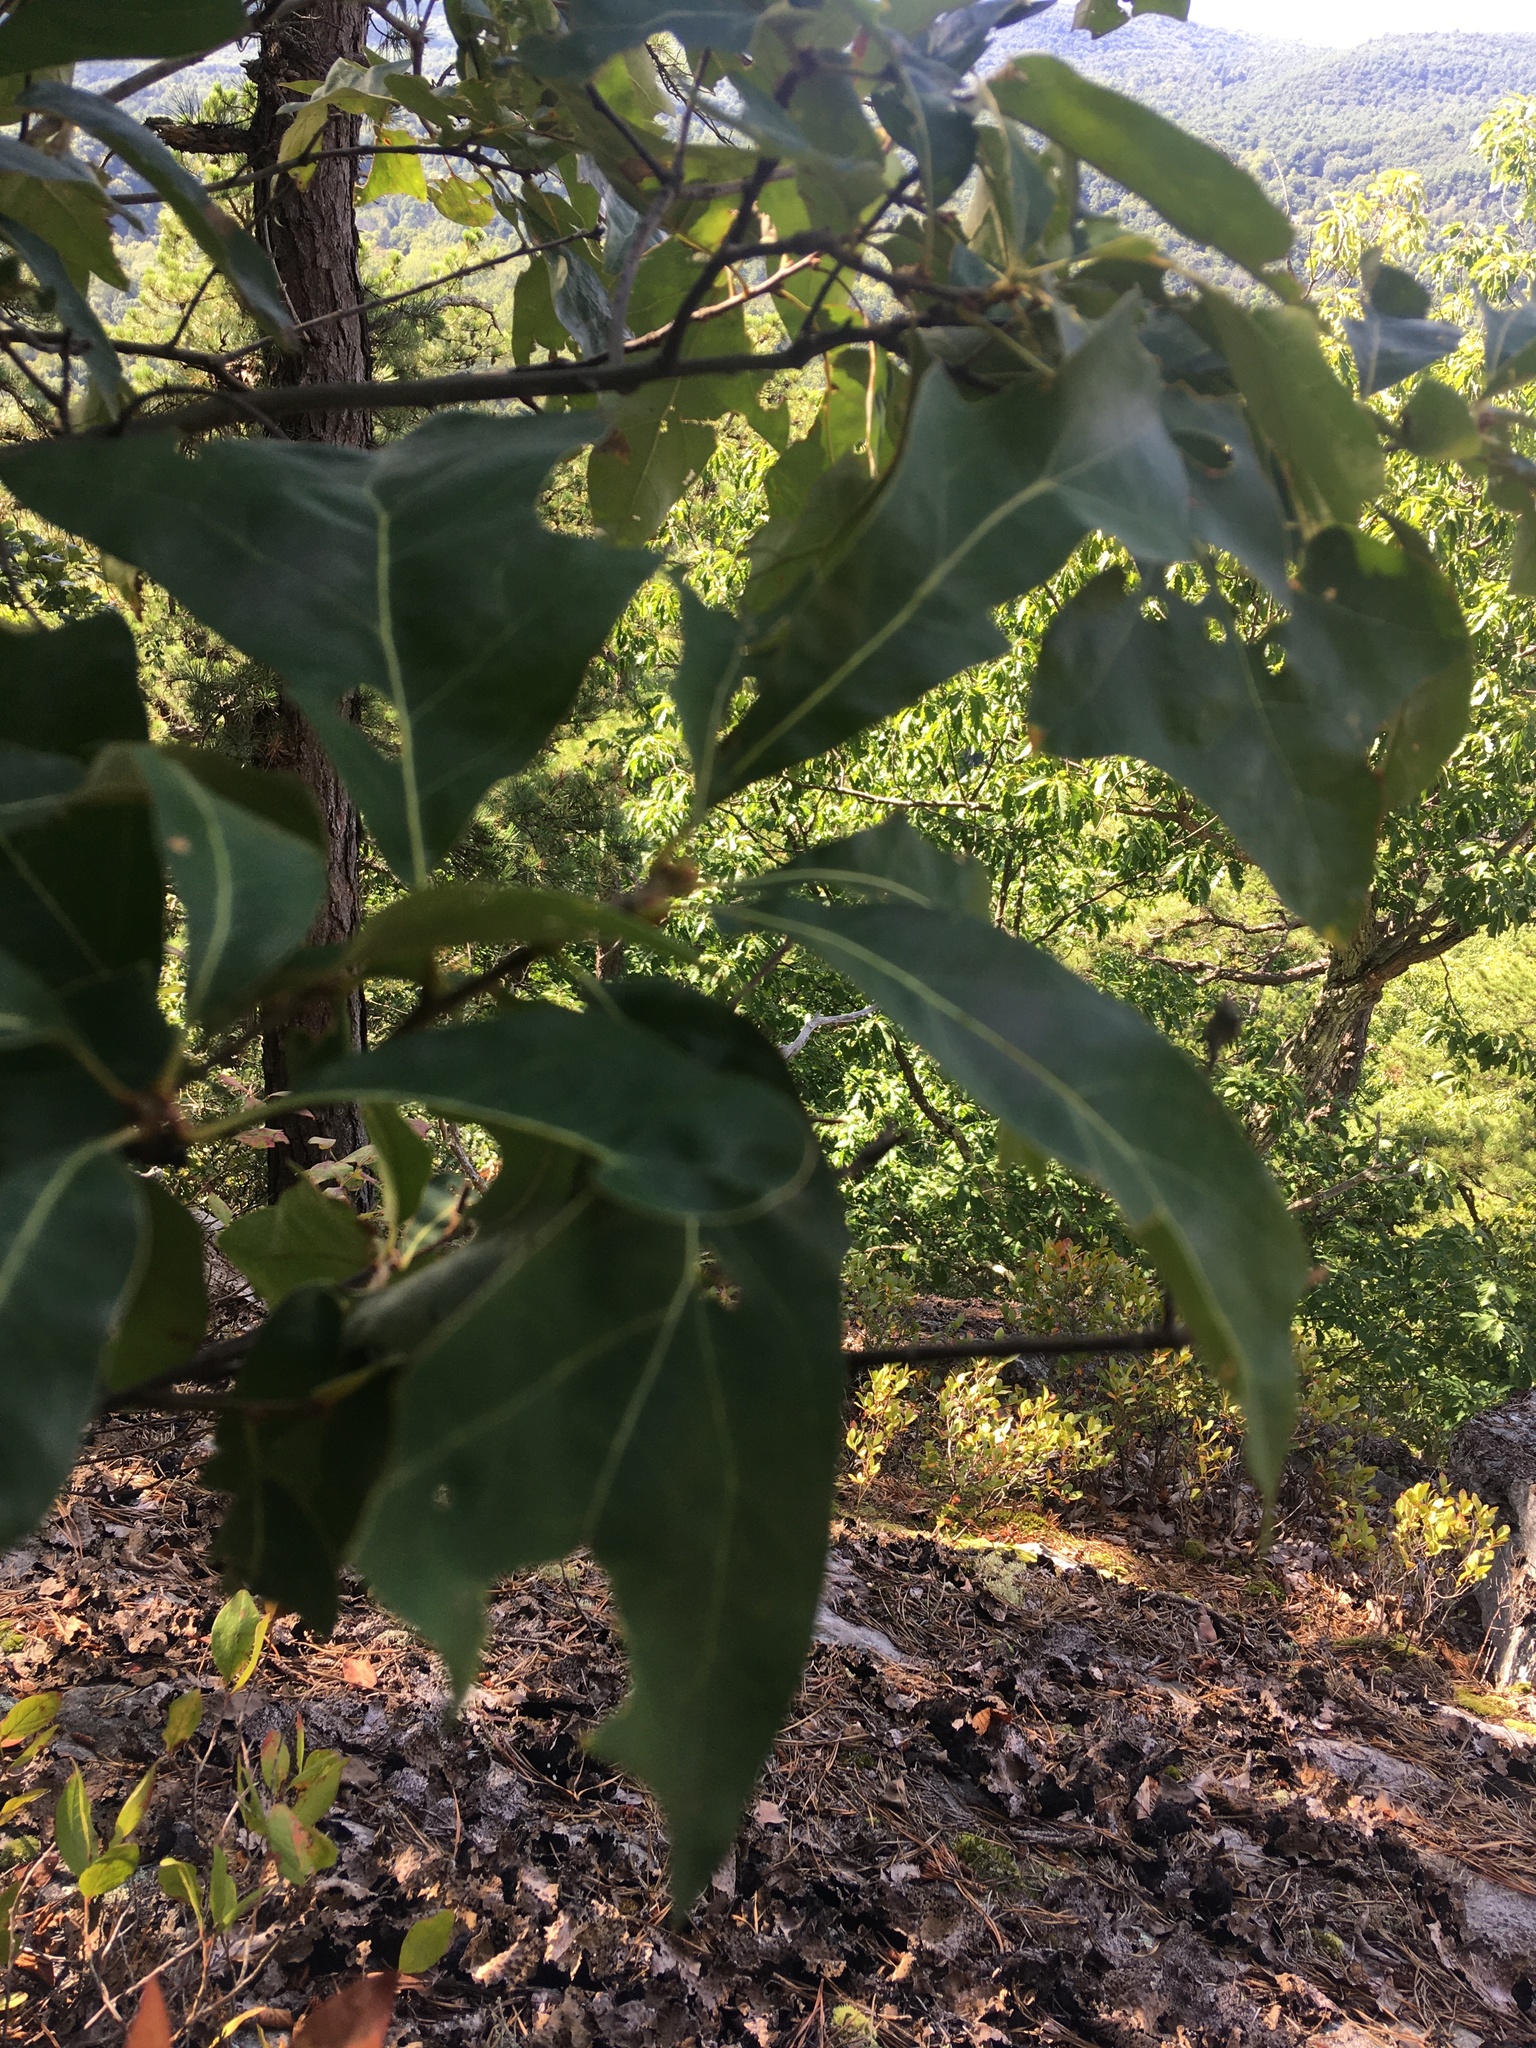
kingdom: Plantae
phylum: Tracheophyta
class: Magnoliopsida
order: Fagales
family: Fagaceae
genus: Quercus
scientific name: Quercus ilicifolia
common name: Bear oak
